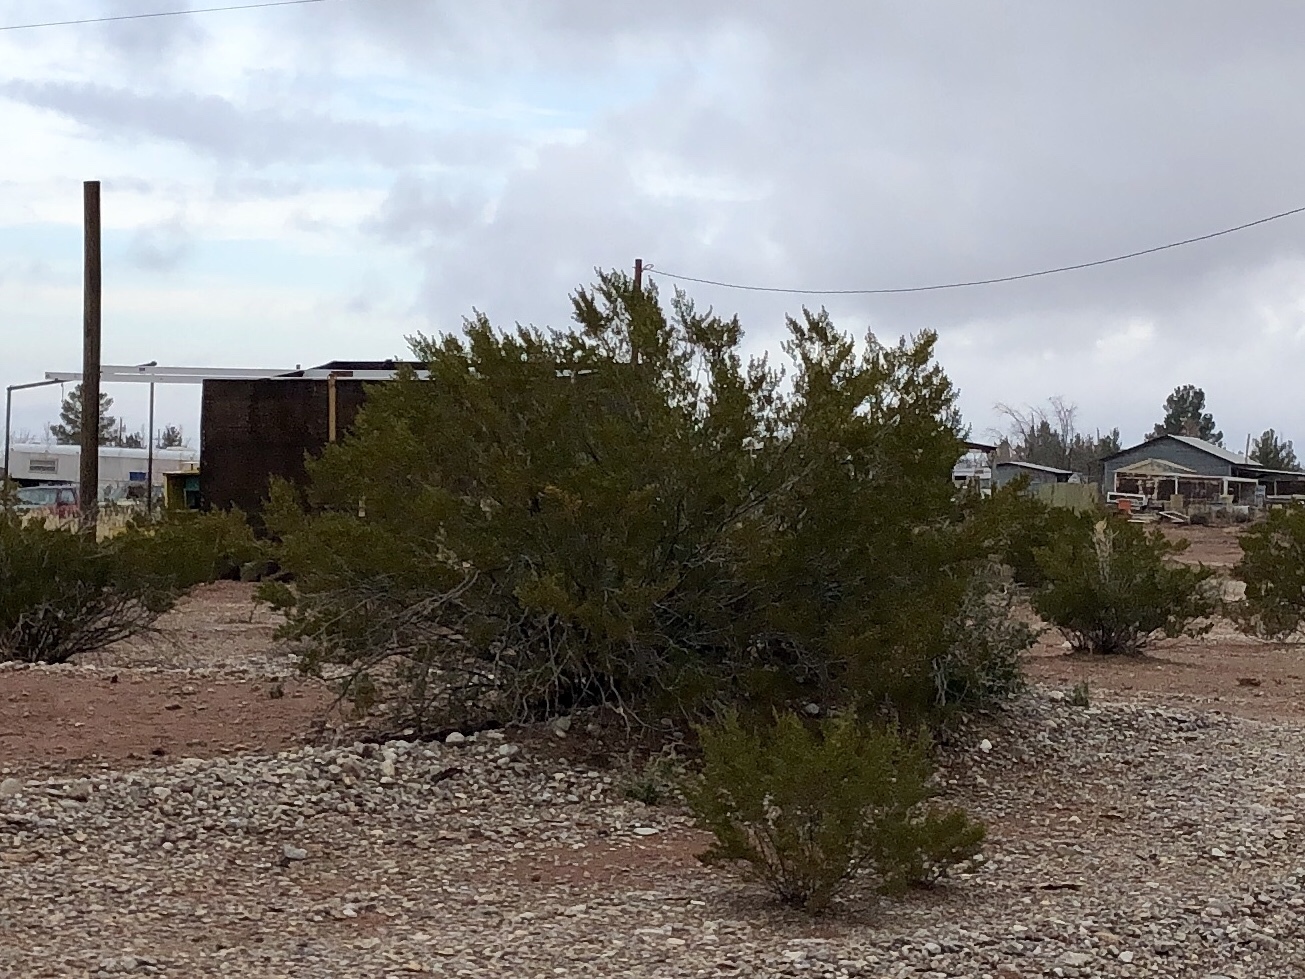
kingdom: Plantae
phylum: Tracheophyta
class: Magnoliopsida
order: Zygophyllales
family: Zygophyllaceae
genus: Larrea
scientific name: Larrea tridentata
